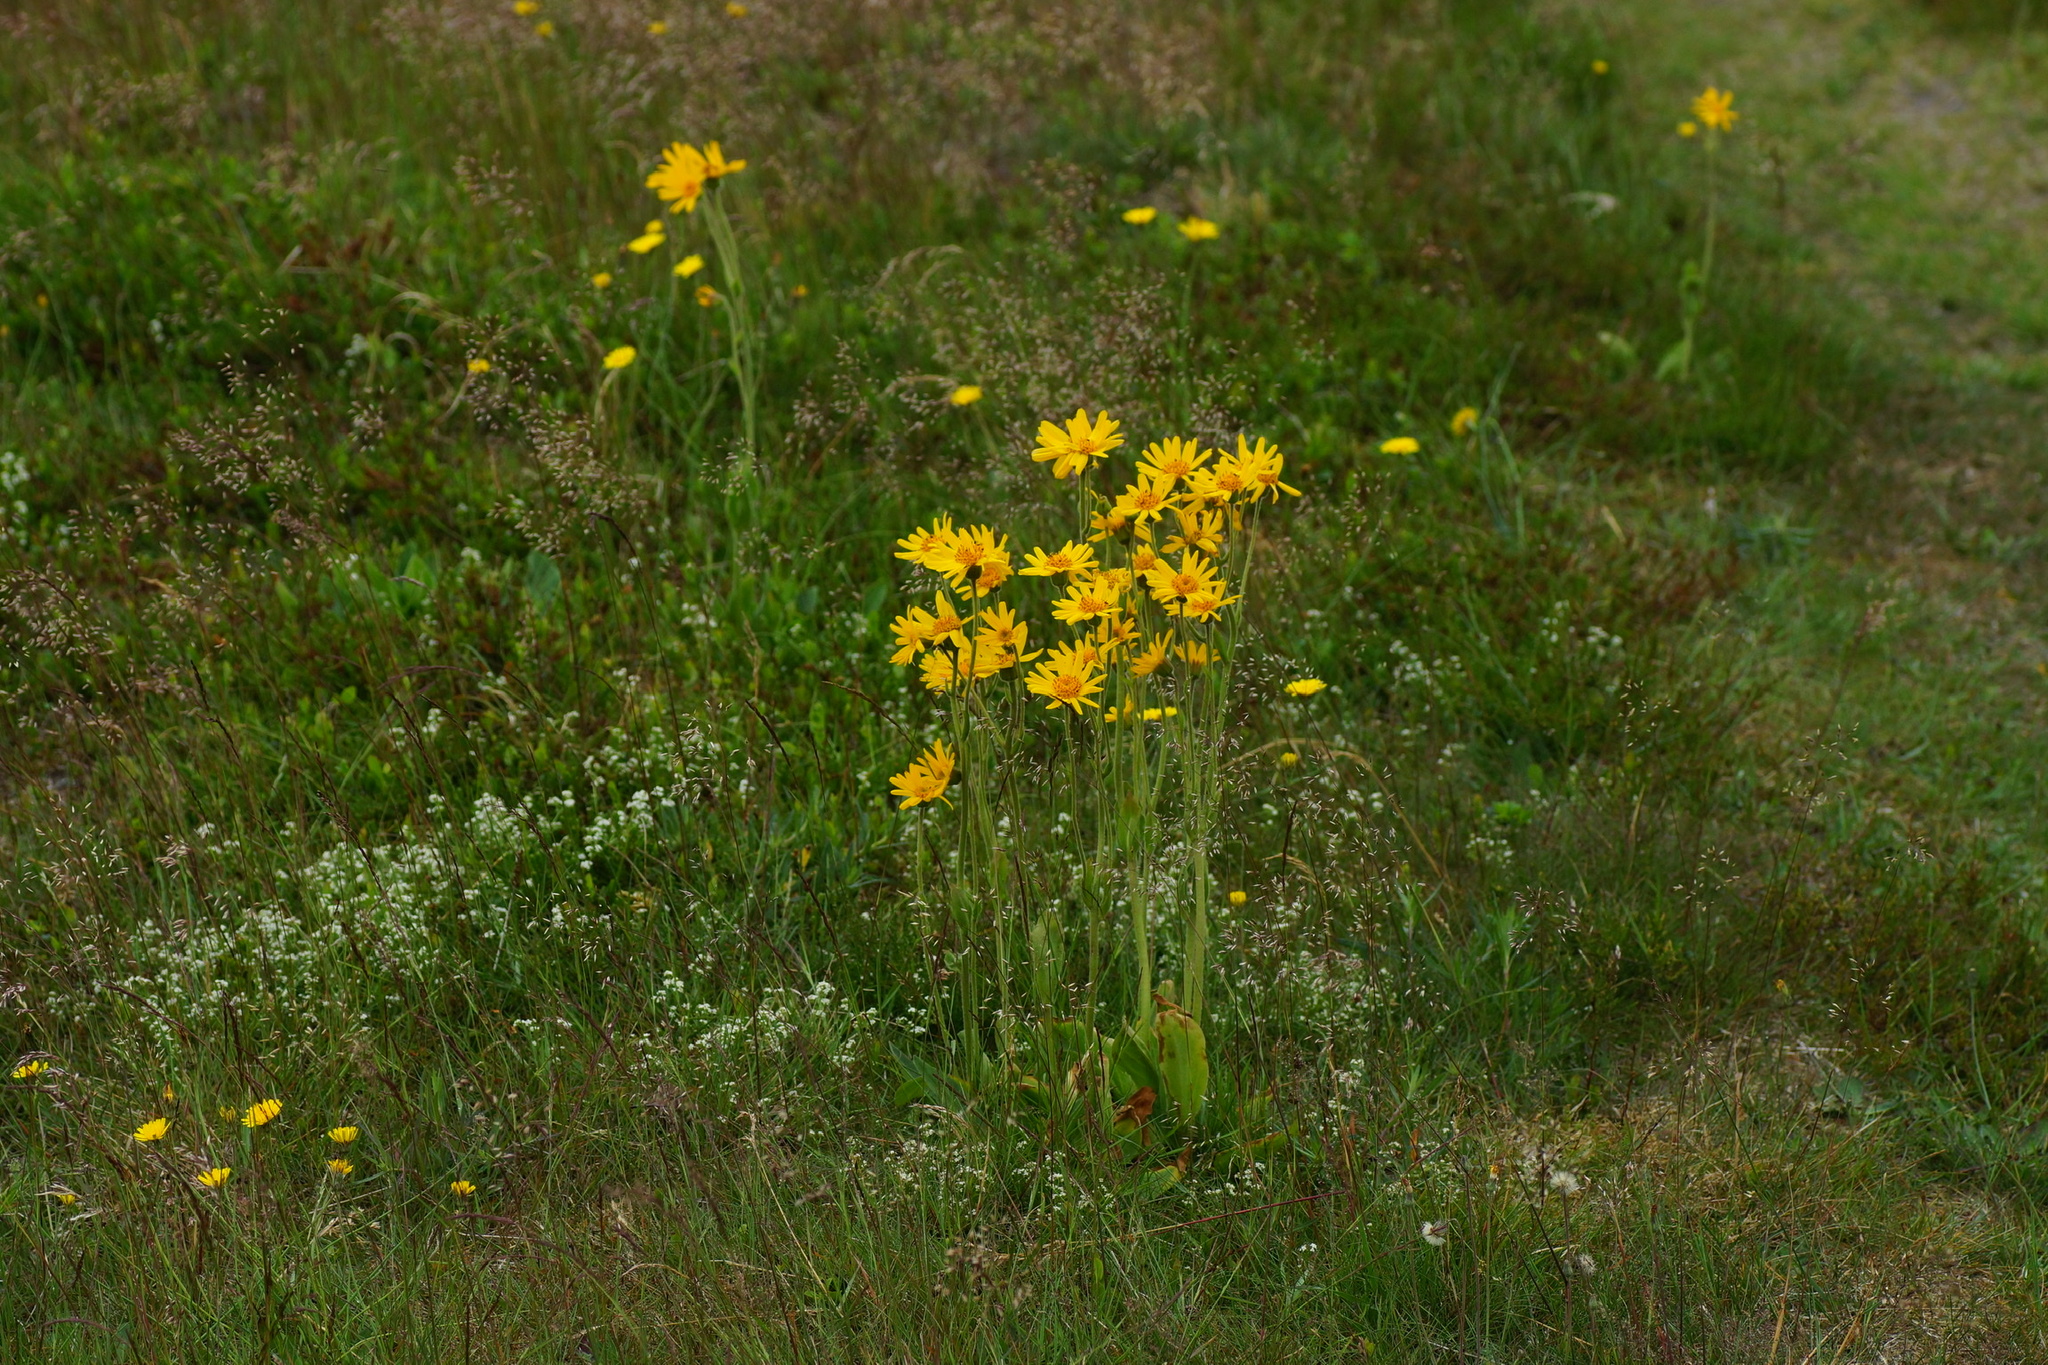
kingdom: Plantae
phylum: Tracheophyta
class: Magnoliopsida
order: Asterales
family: Asteraceae
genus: Arnica
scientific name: Arnica montana
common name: Leopard's bane
